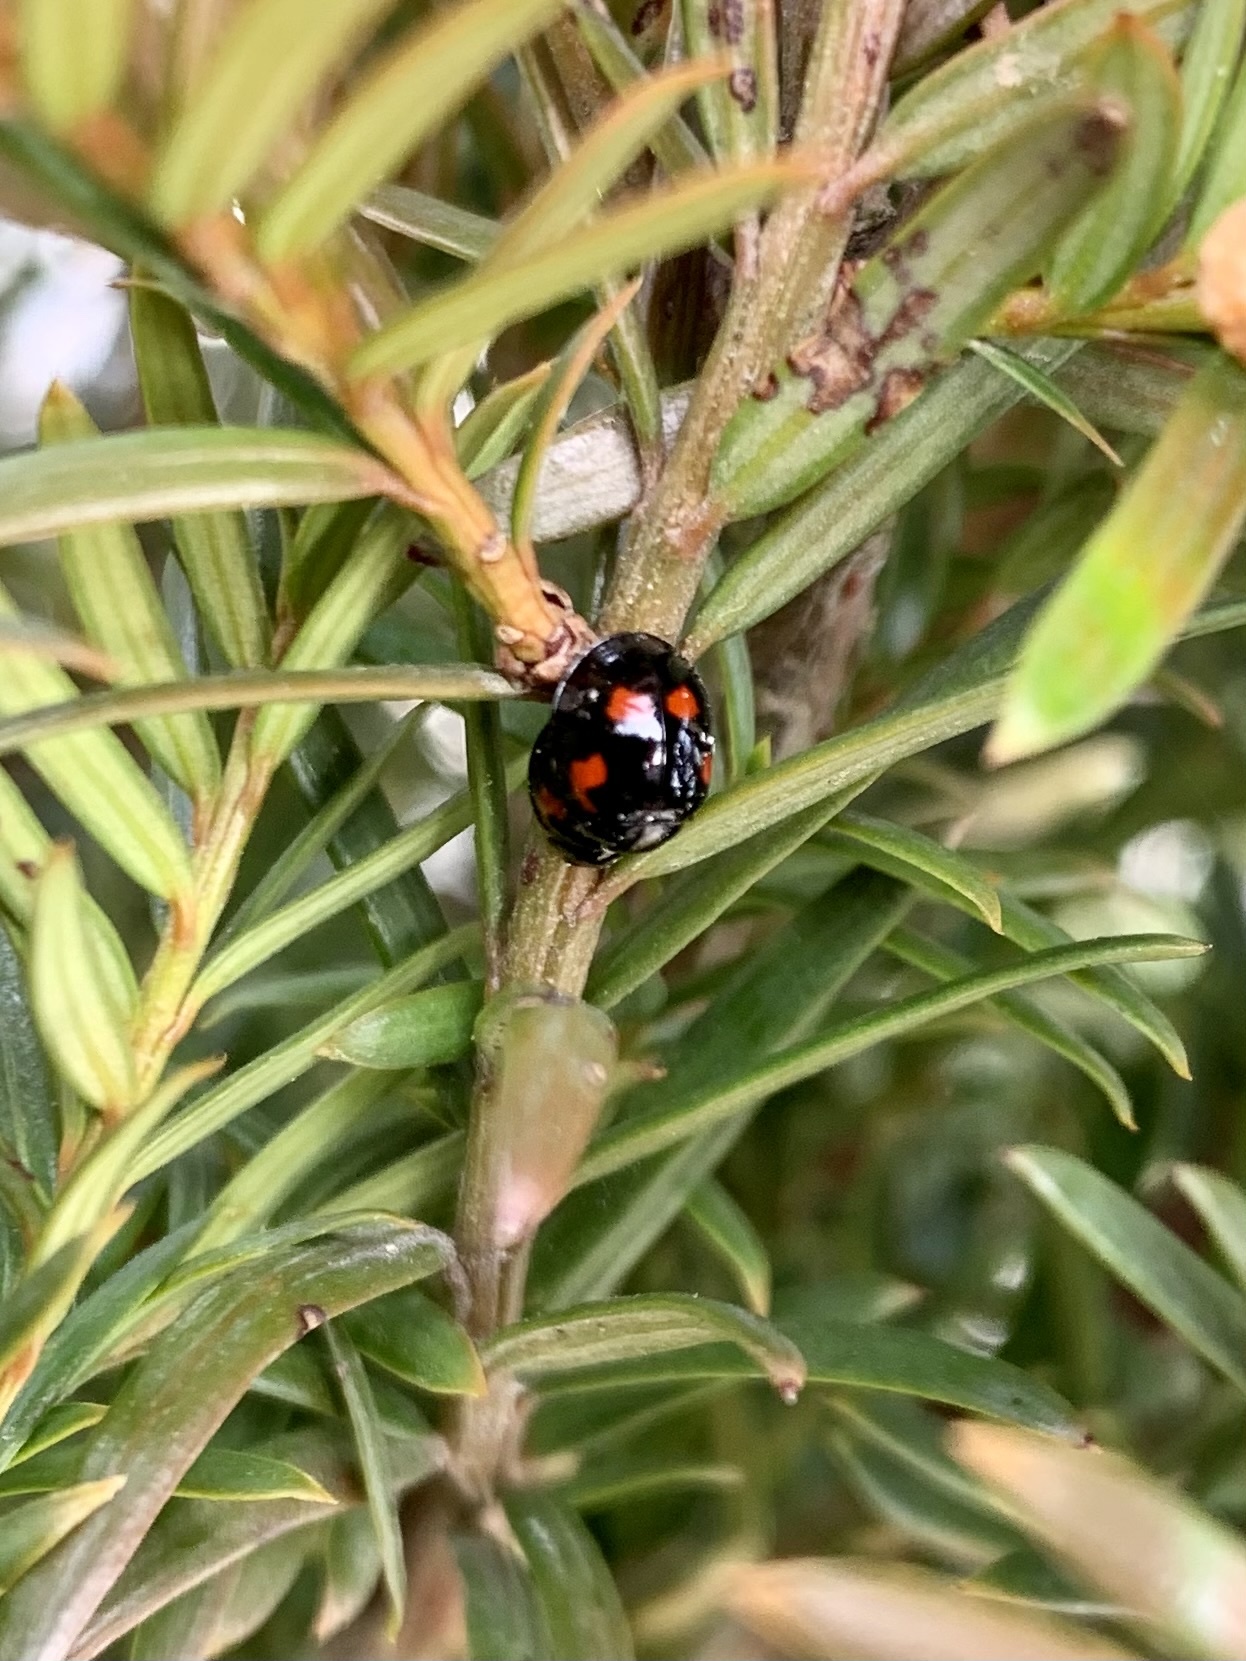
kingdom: Animalia
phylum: Arthropoda
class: Insecta
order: Coleoptera
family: Coccinellidae
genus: Brumus
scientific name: Brumus quadripustulatus
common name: Ladybird beetle
